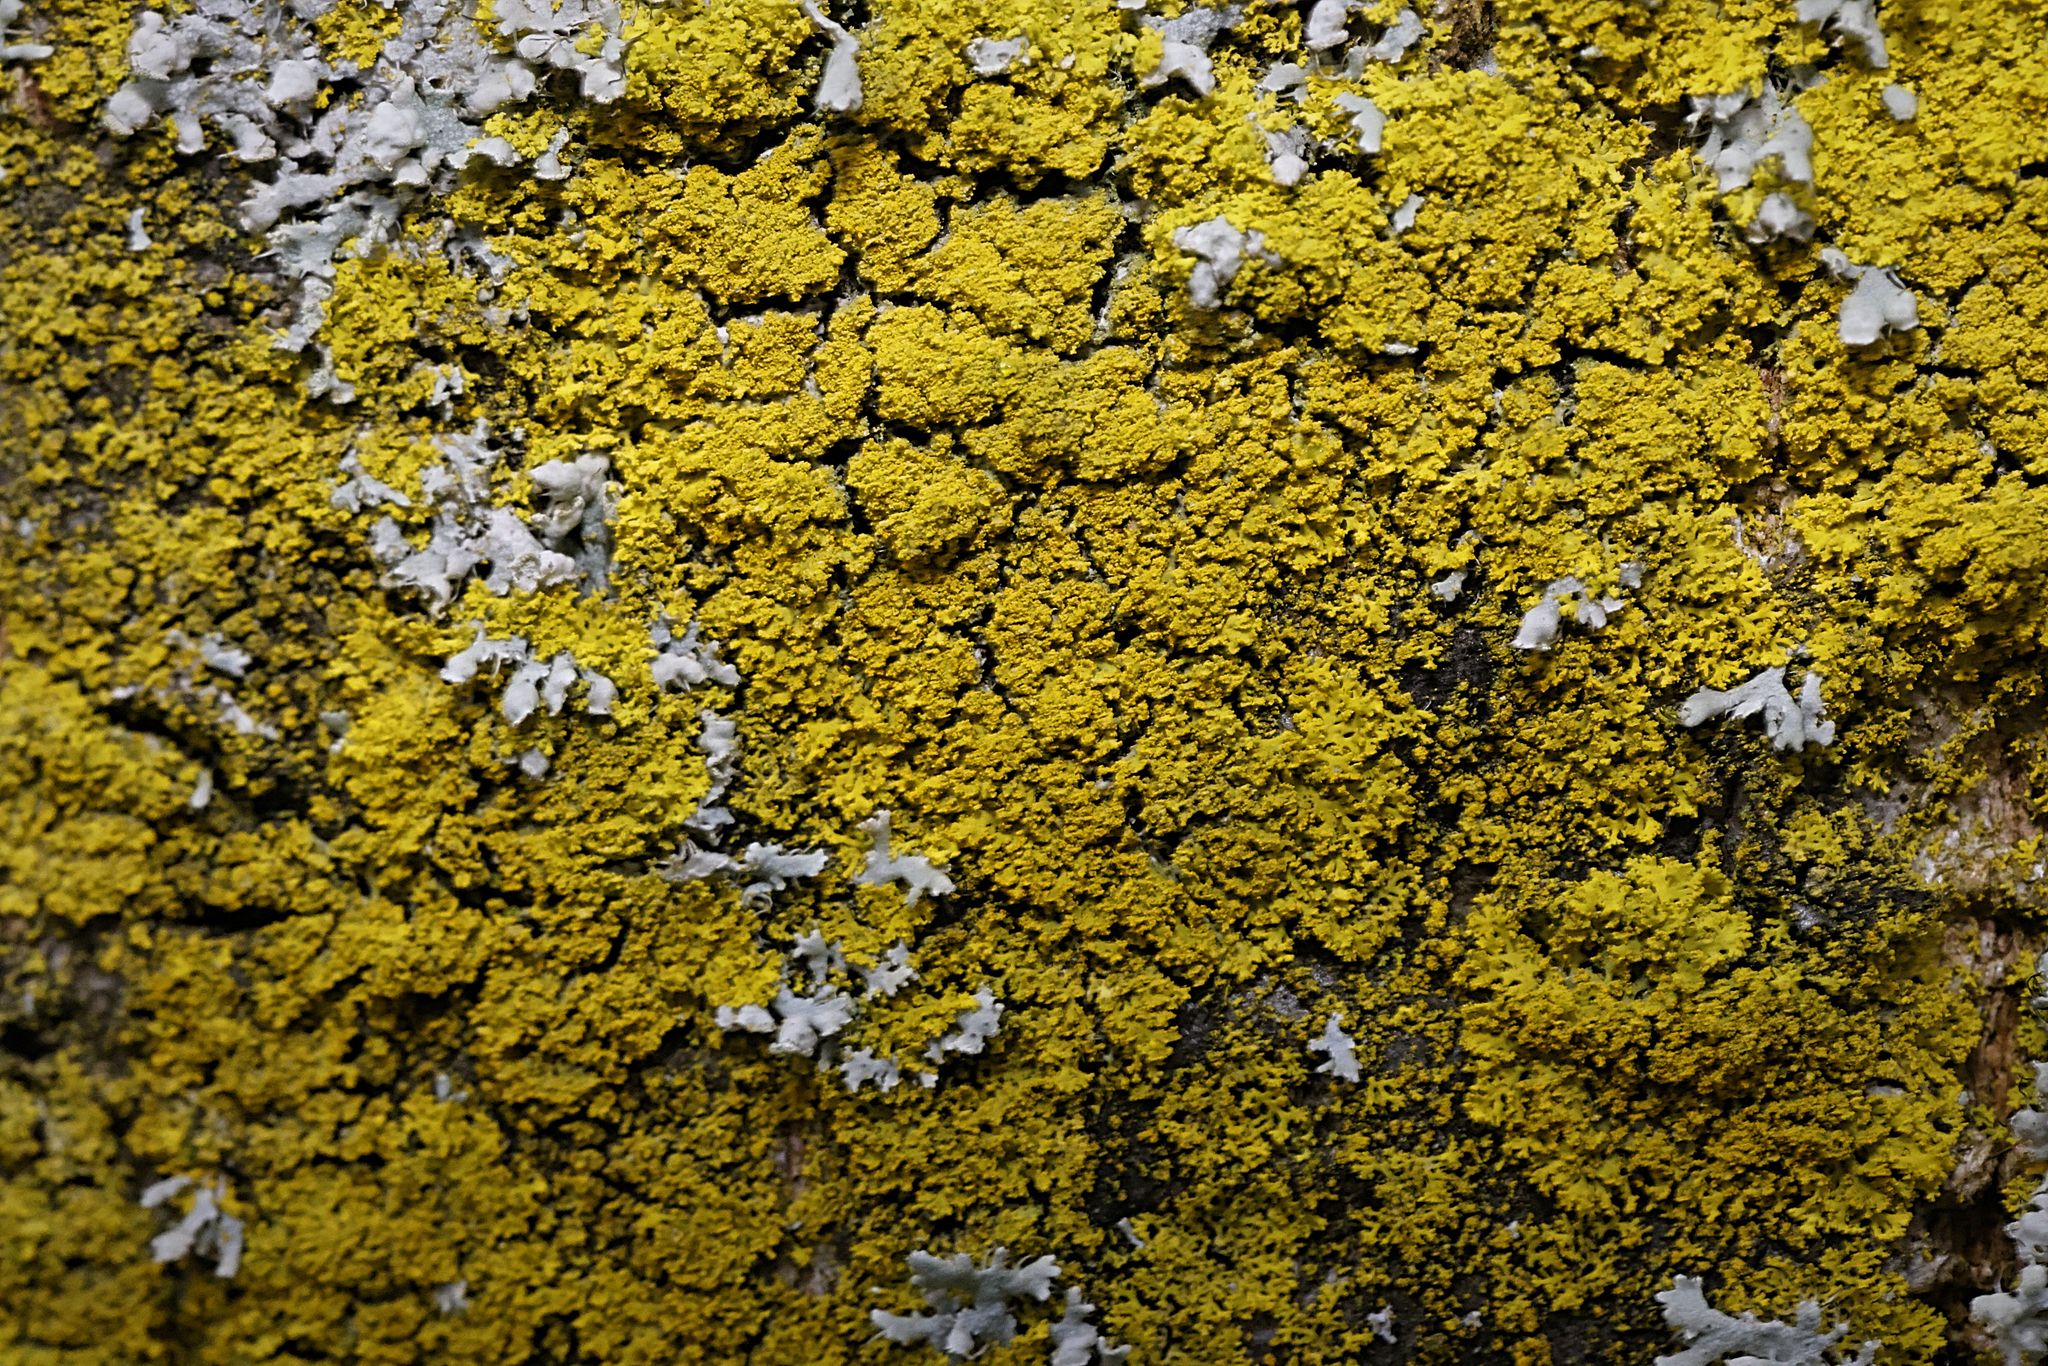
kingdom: Fungi
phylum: Ascomycota
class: Candelariomycetes
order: Candelariales
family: Candelariaceae
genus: Candelaria
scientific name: Candelaria concolor
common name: Candleflame lichen
